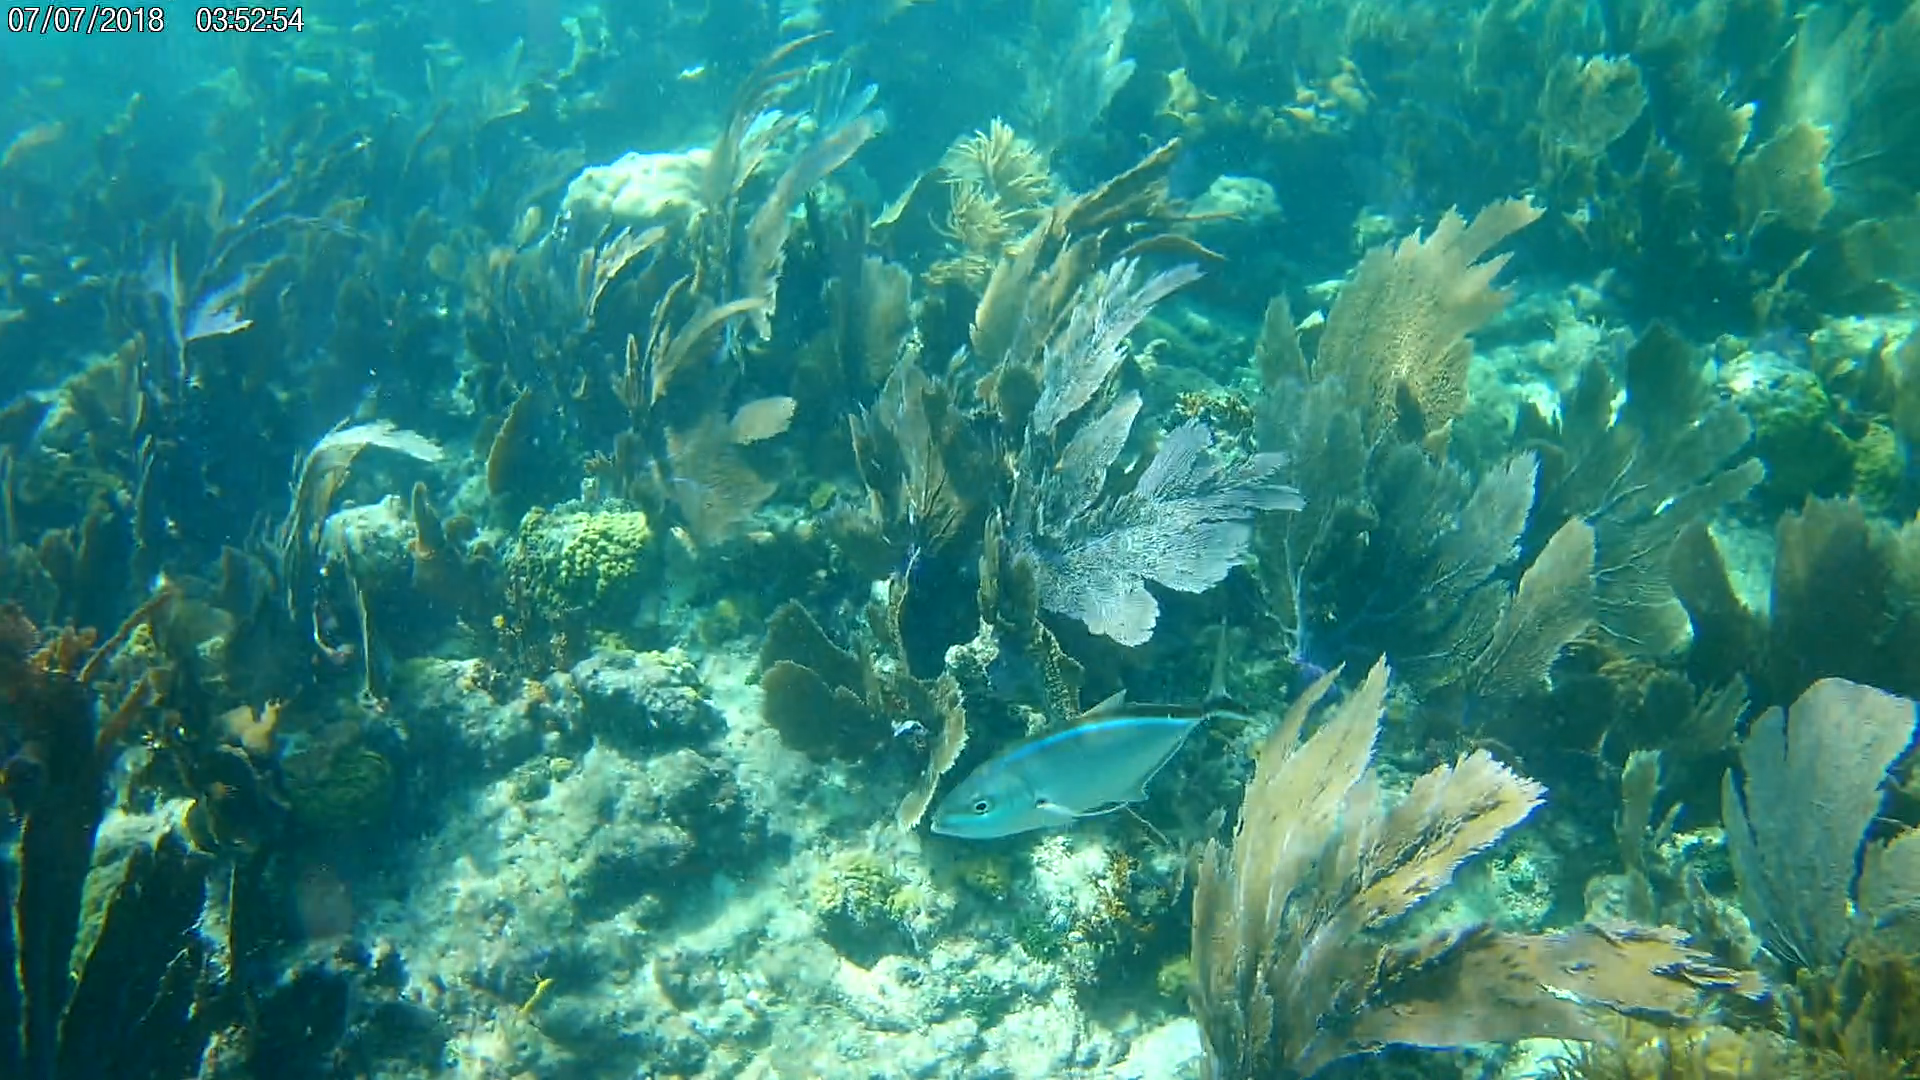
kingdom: Animalia
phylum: Chordata
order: Perciformes
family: Carangidae
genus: Caranx
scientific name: Caranx ruber
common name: Bar jack
